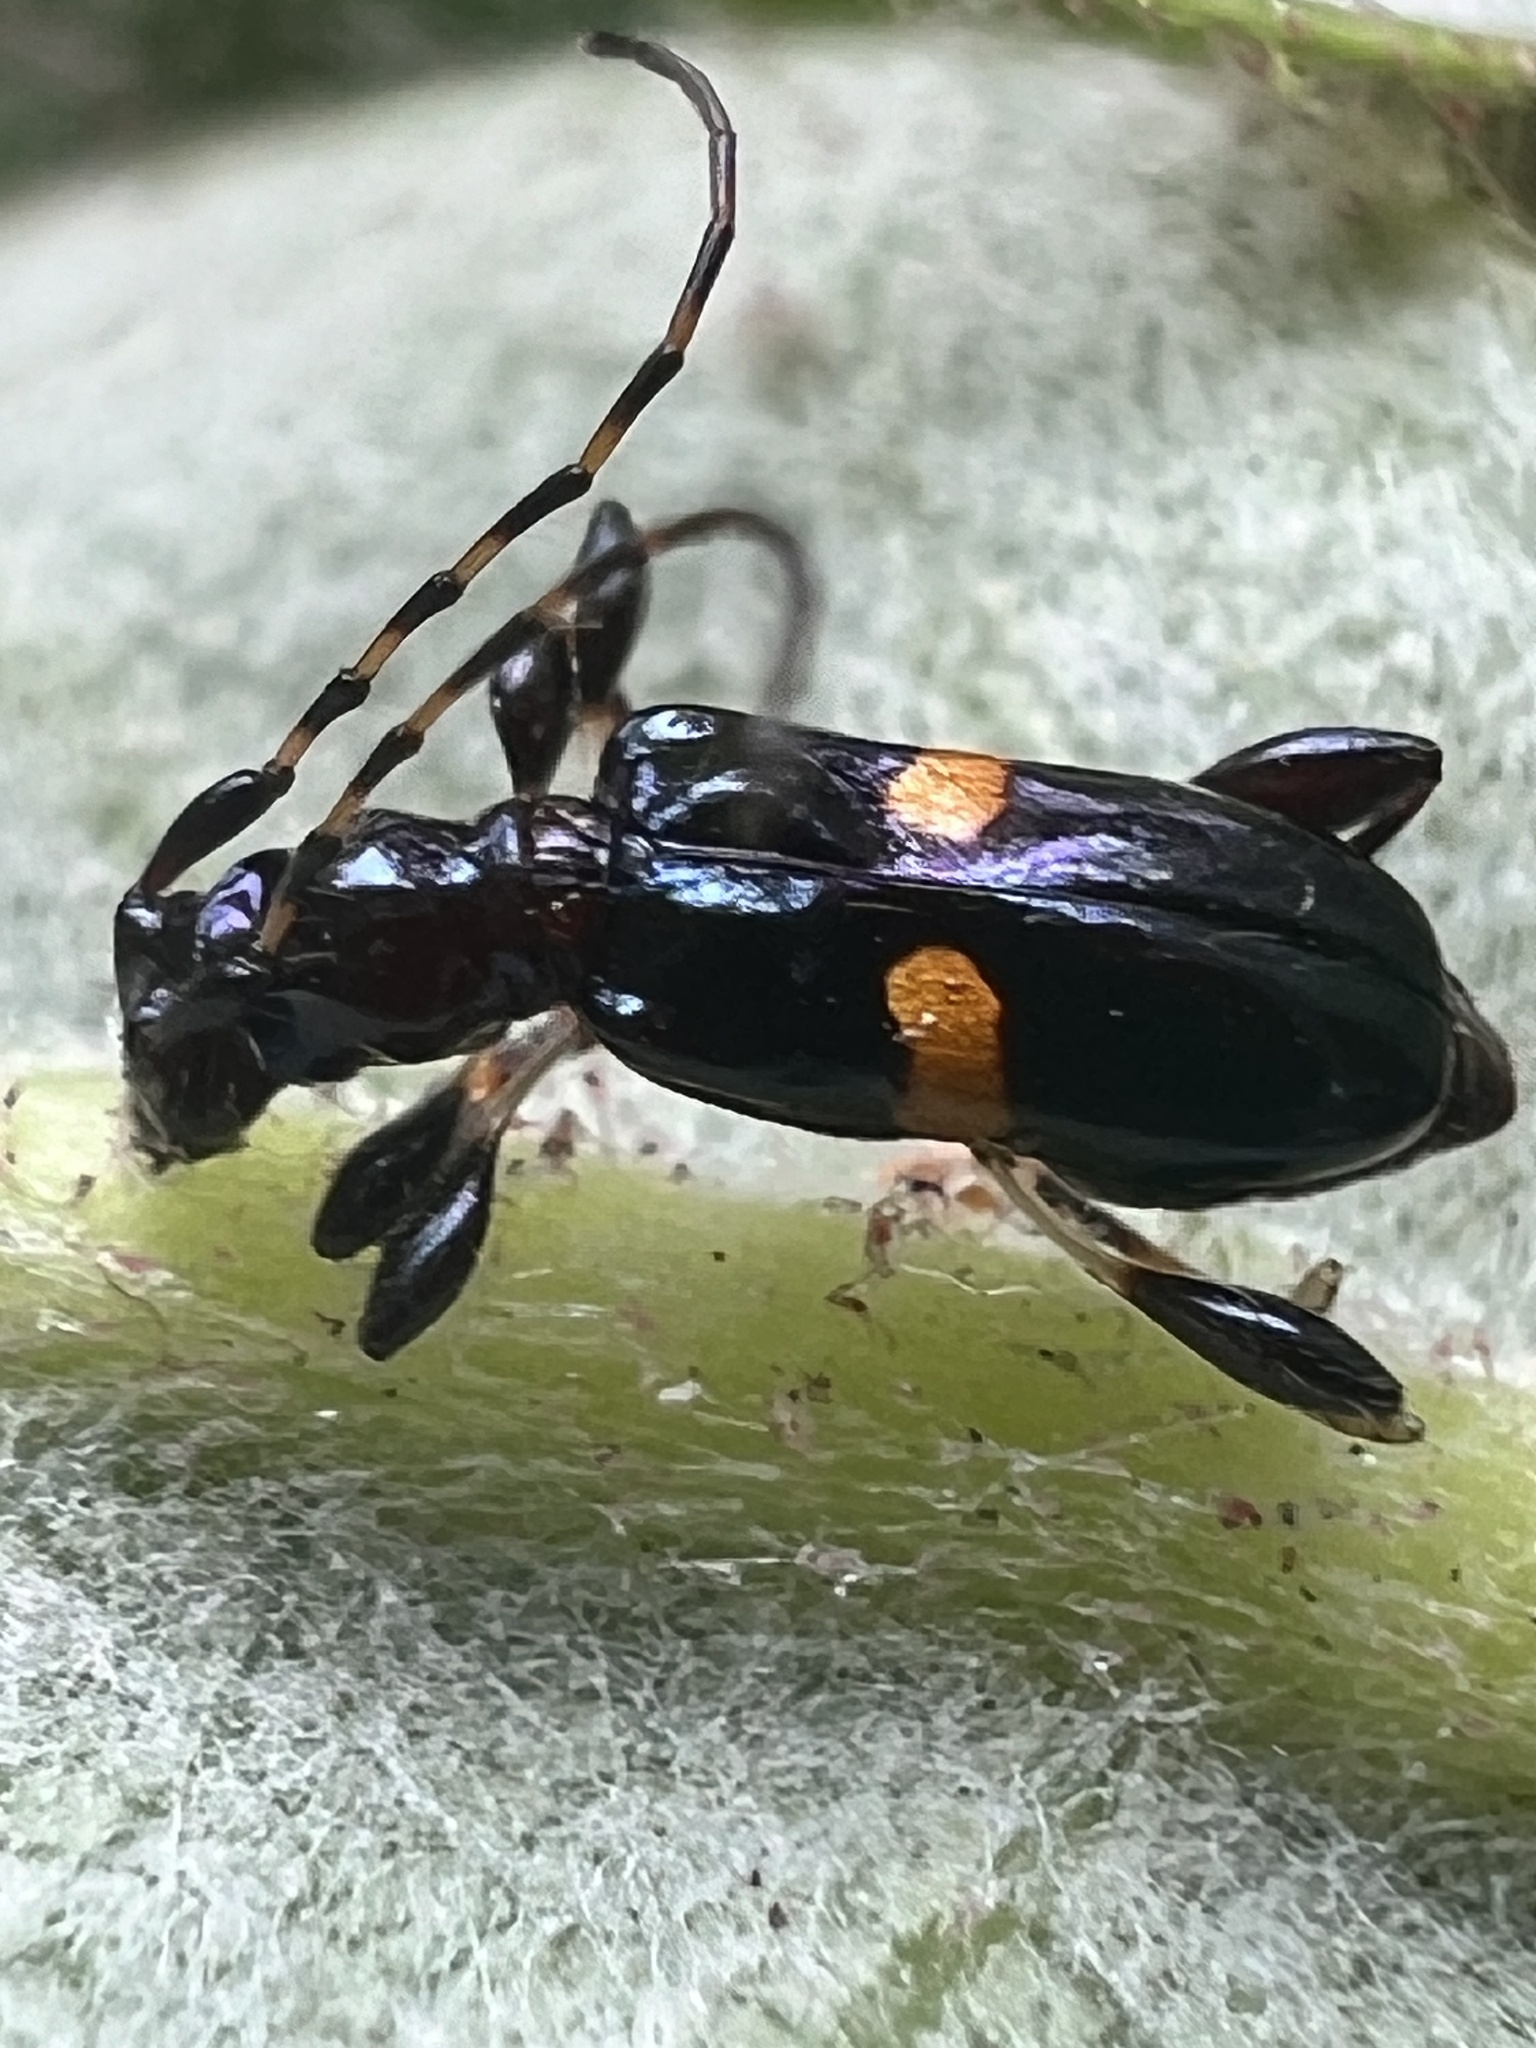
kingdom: Animalia
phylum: Arthropoda
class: Insecta
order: Coleoptera
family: Cerambycidae
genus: Zorion
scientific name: Zorion guttigerum
